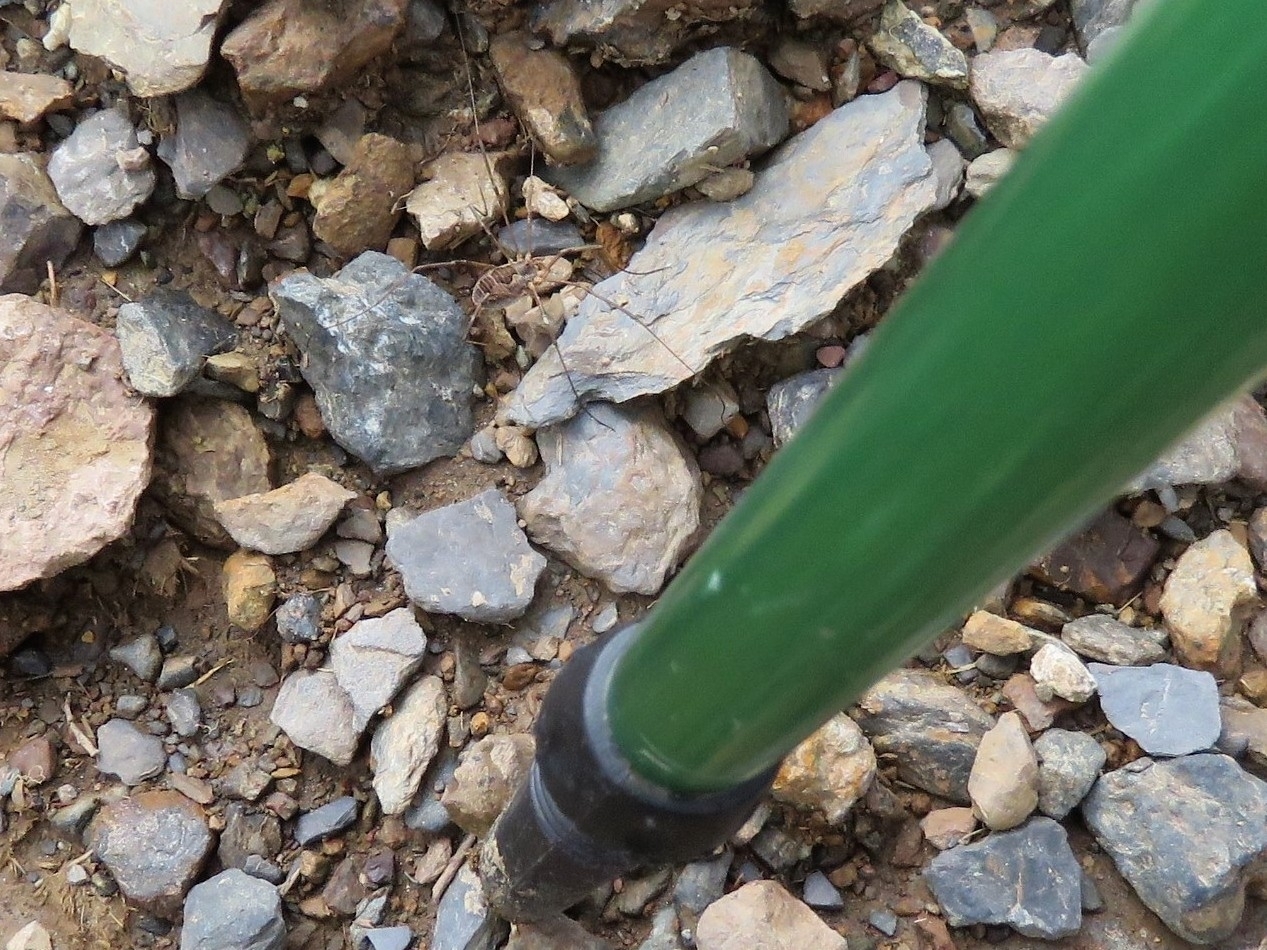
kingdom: Animalia
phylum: Arthropoda
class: Arachnida
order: Opiliones
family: Phalangiidae
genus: Phalangium
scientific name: Phalangium opilio
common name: Daddy longleg
